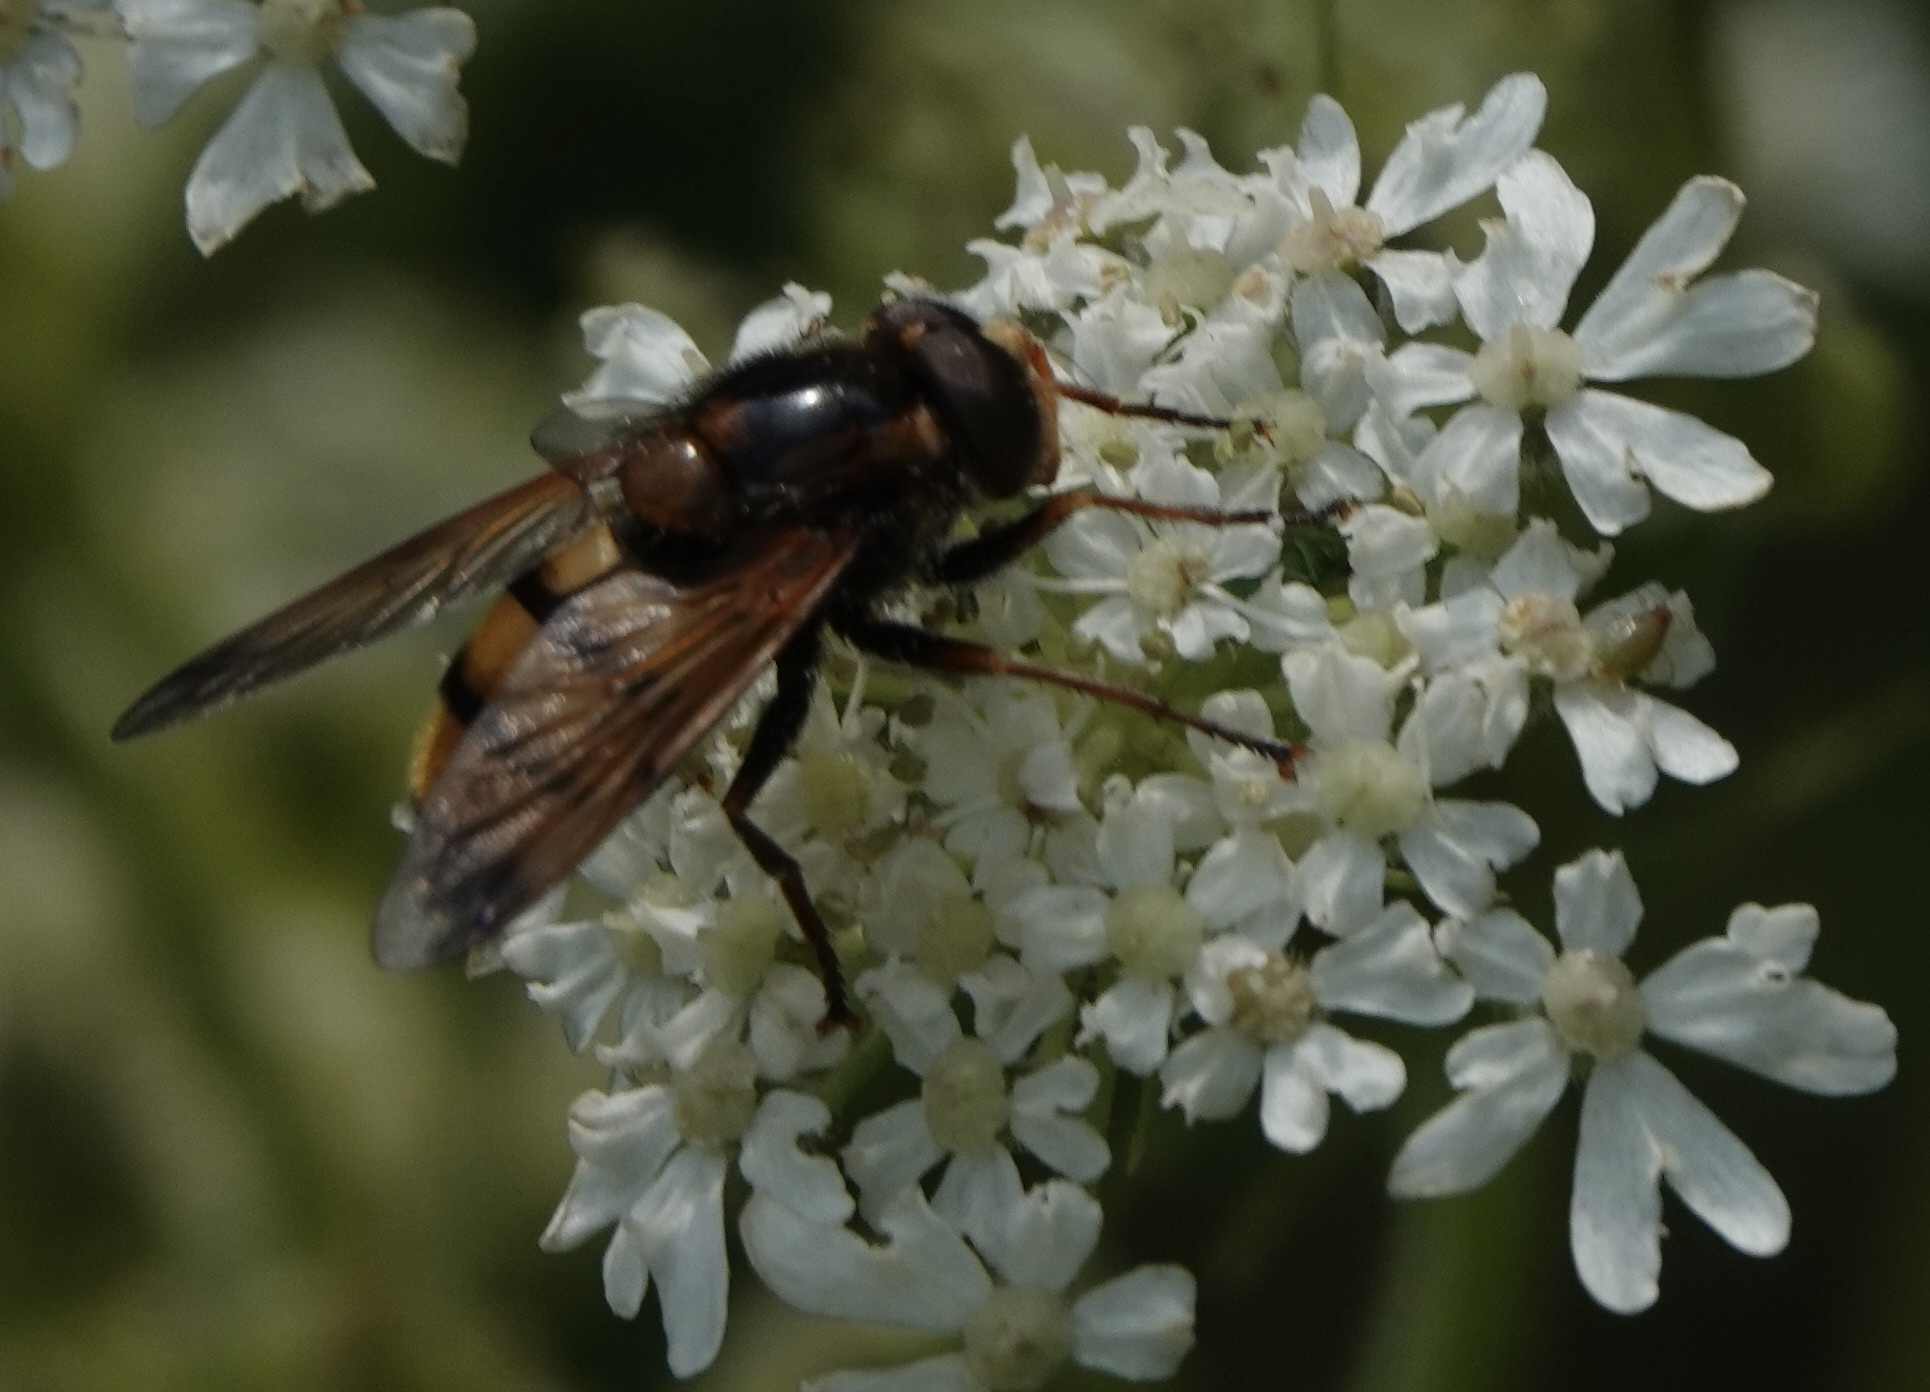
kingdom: Animalia
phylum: Arthropoda
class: Insecta
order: Diptera
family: Syrphidae
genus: Volucella
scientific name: Volucella inanis
